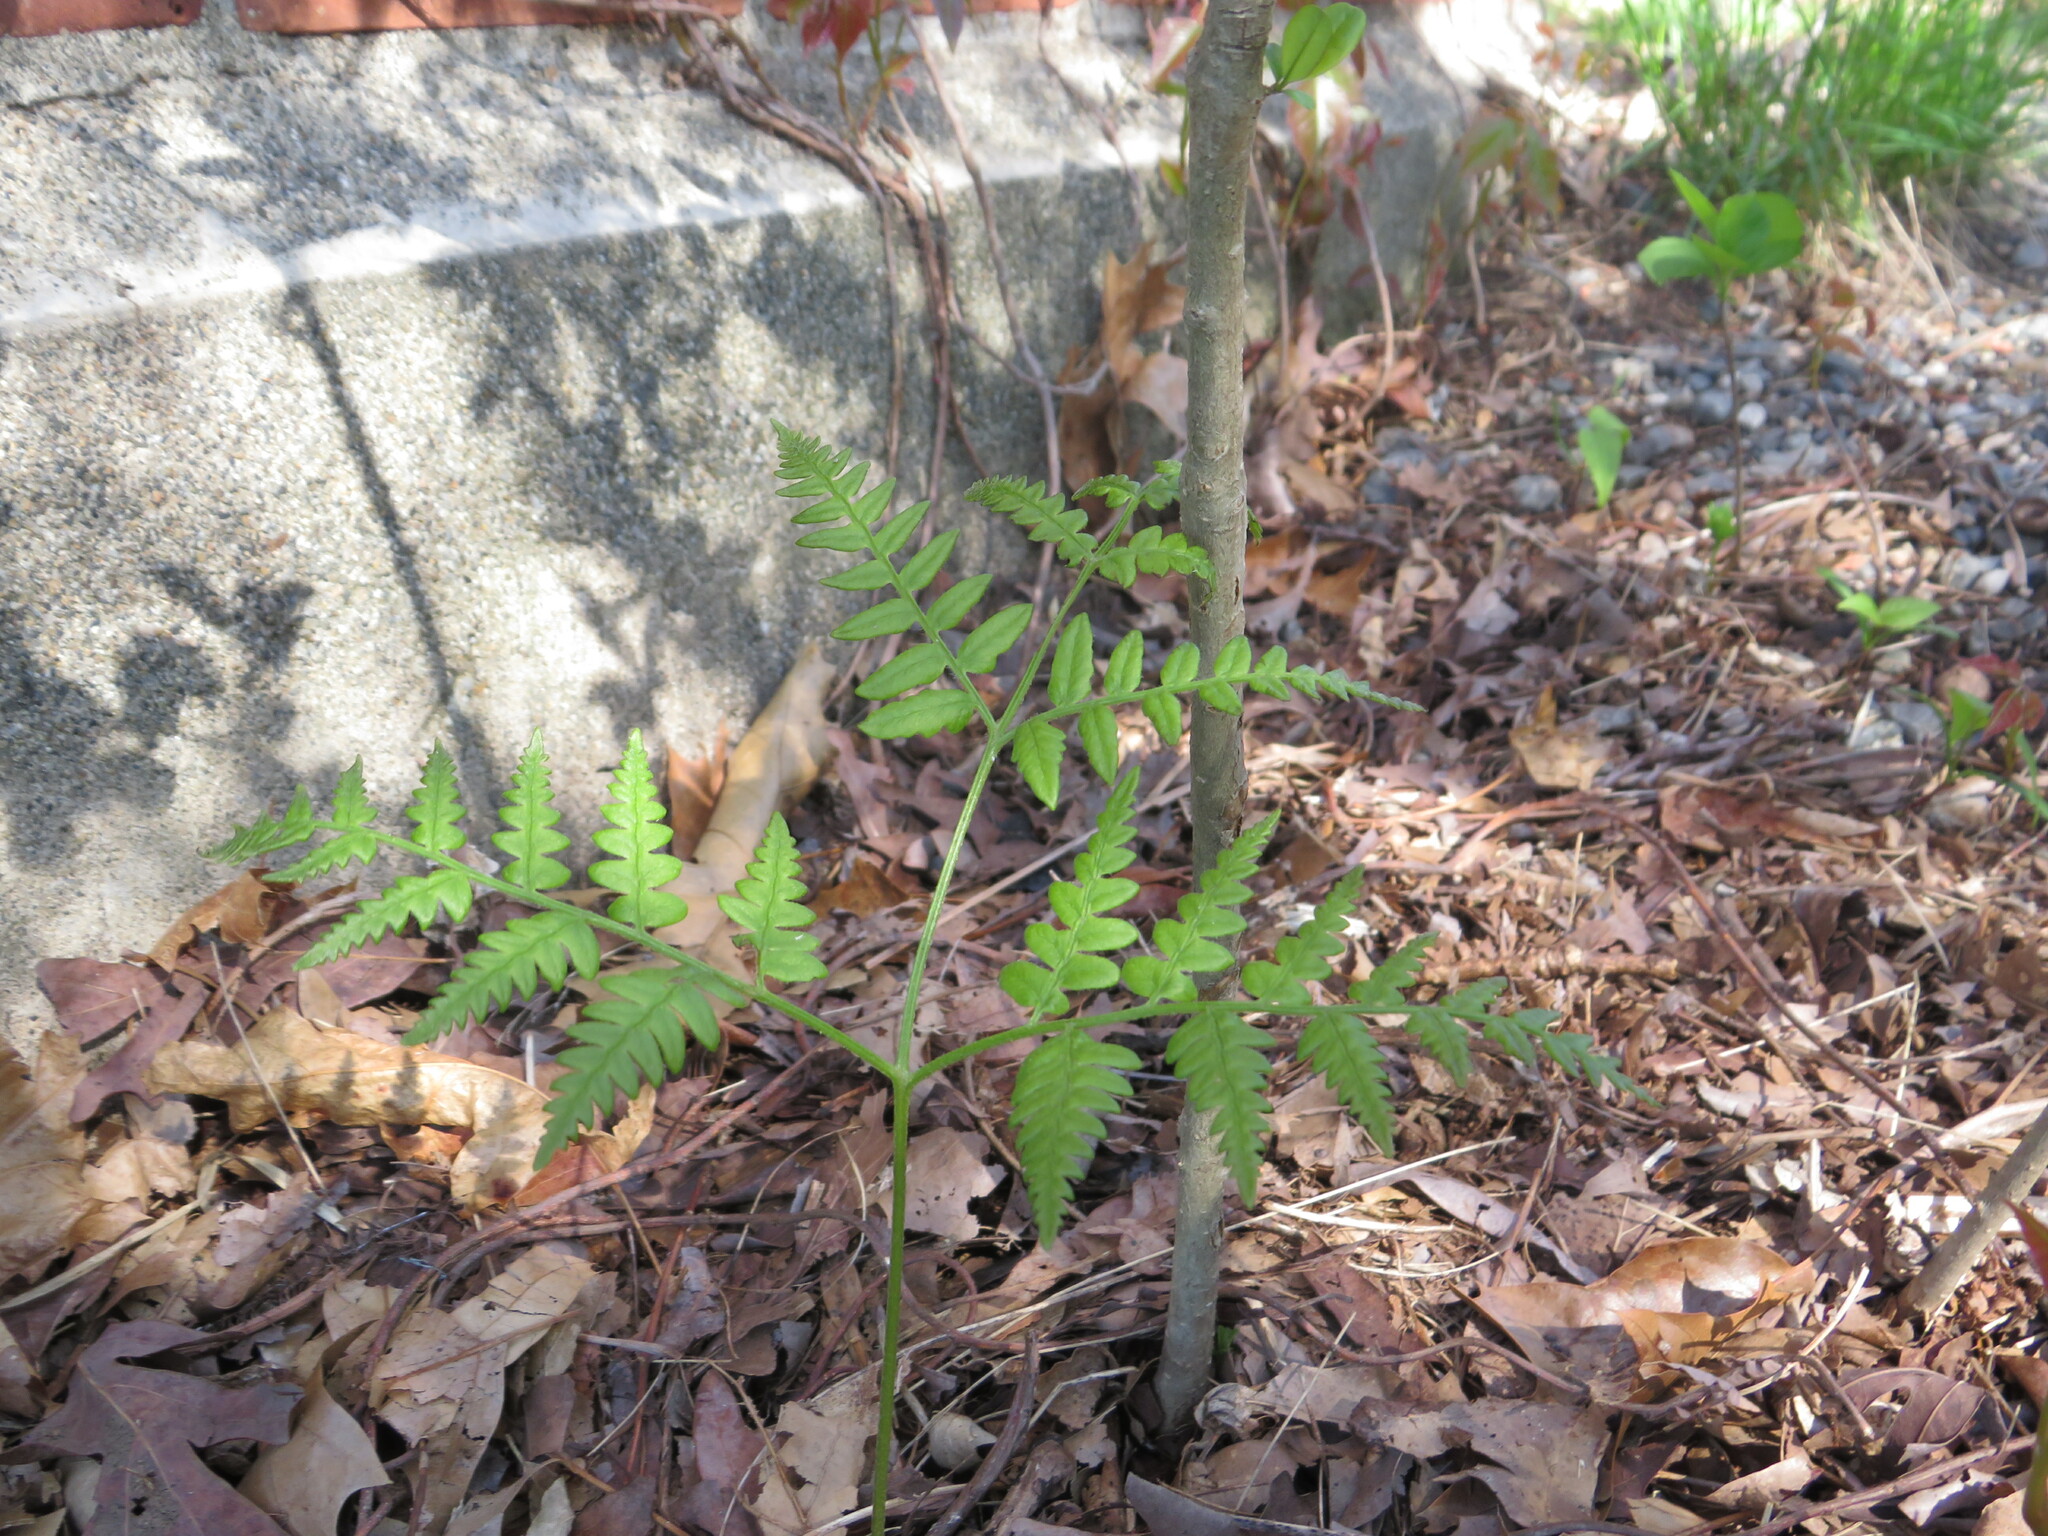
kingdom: Plantae
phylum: Tracheophyta
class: Polypodiopsida
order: Polypodiales
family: Dennstaedtiaceae
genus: Pteridium
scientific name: Pteridium aquilinum
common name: Bracken
